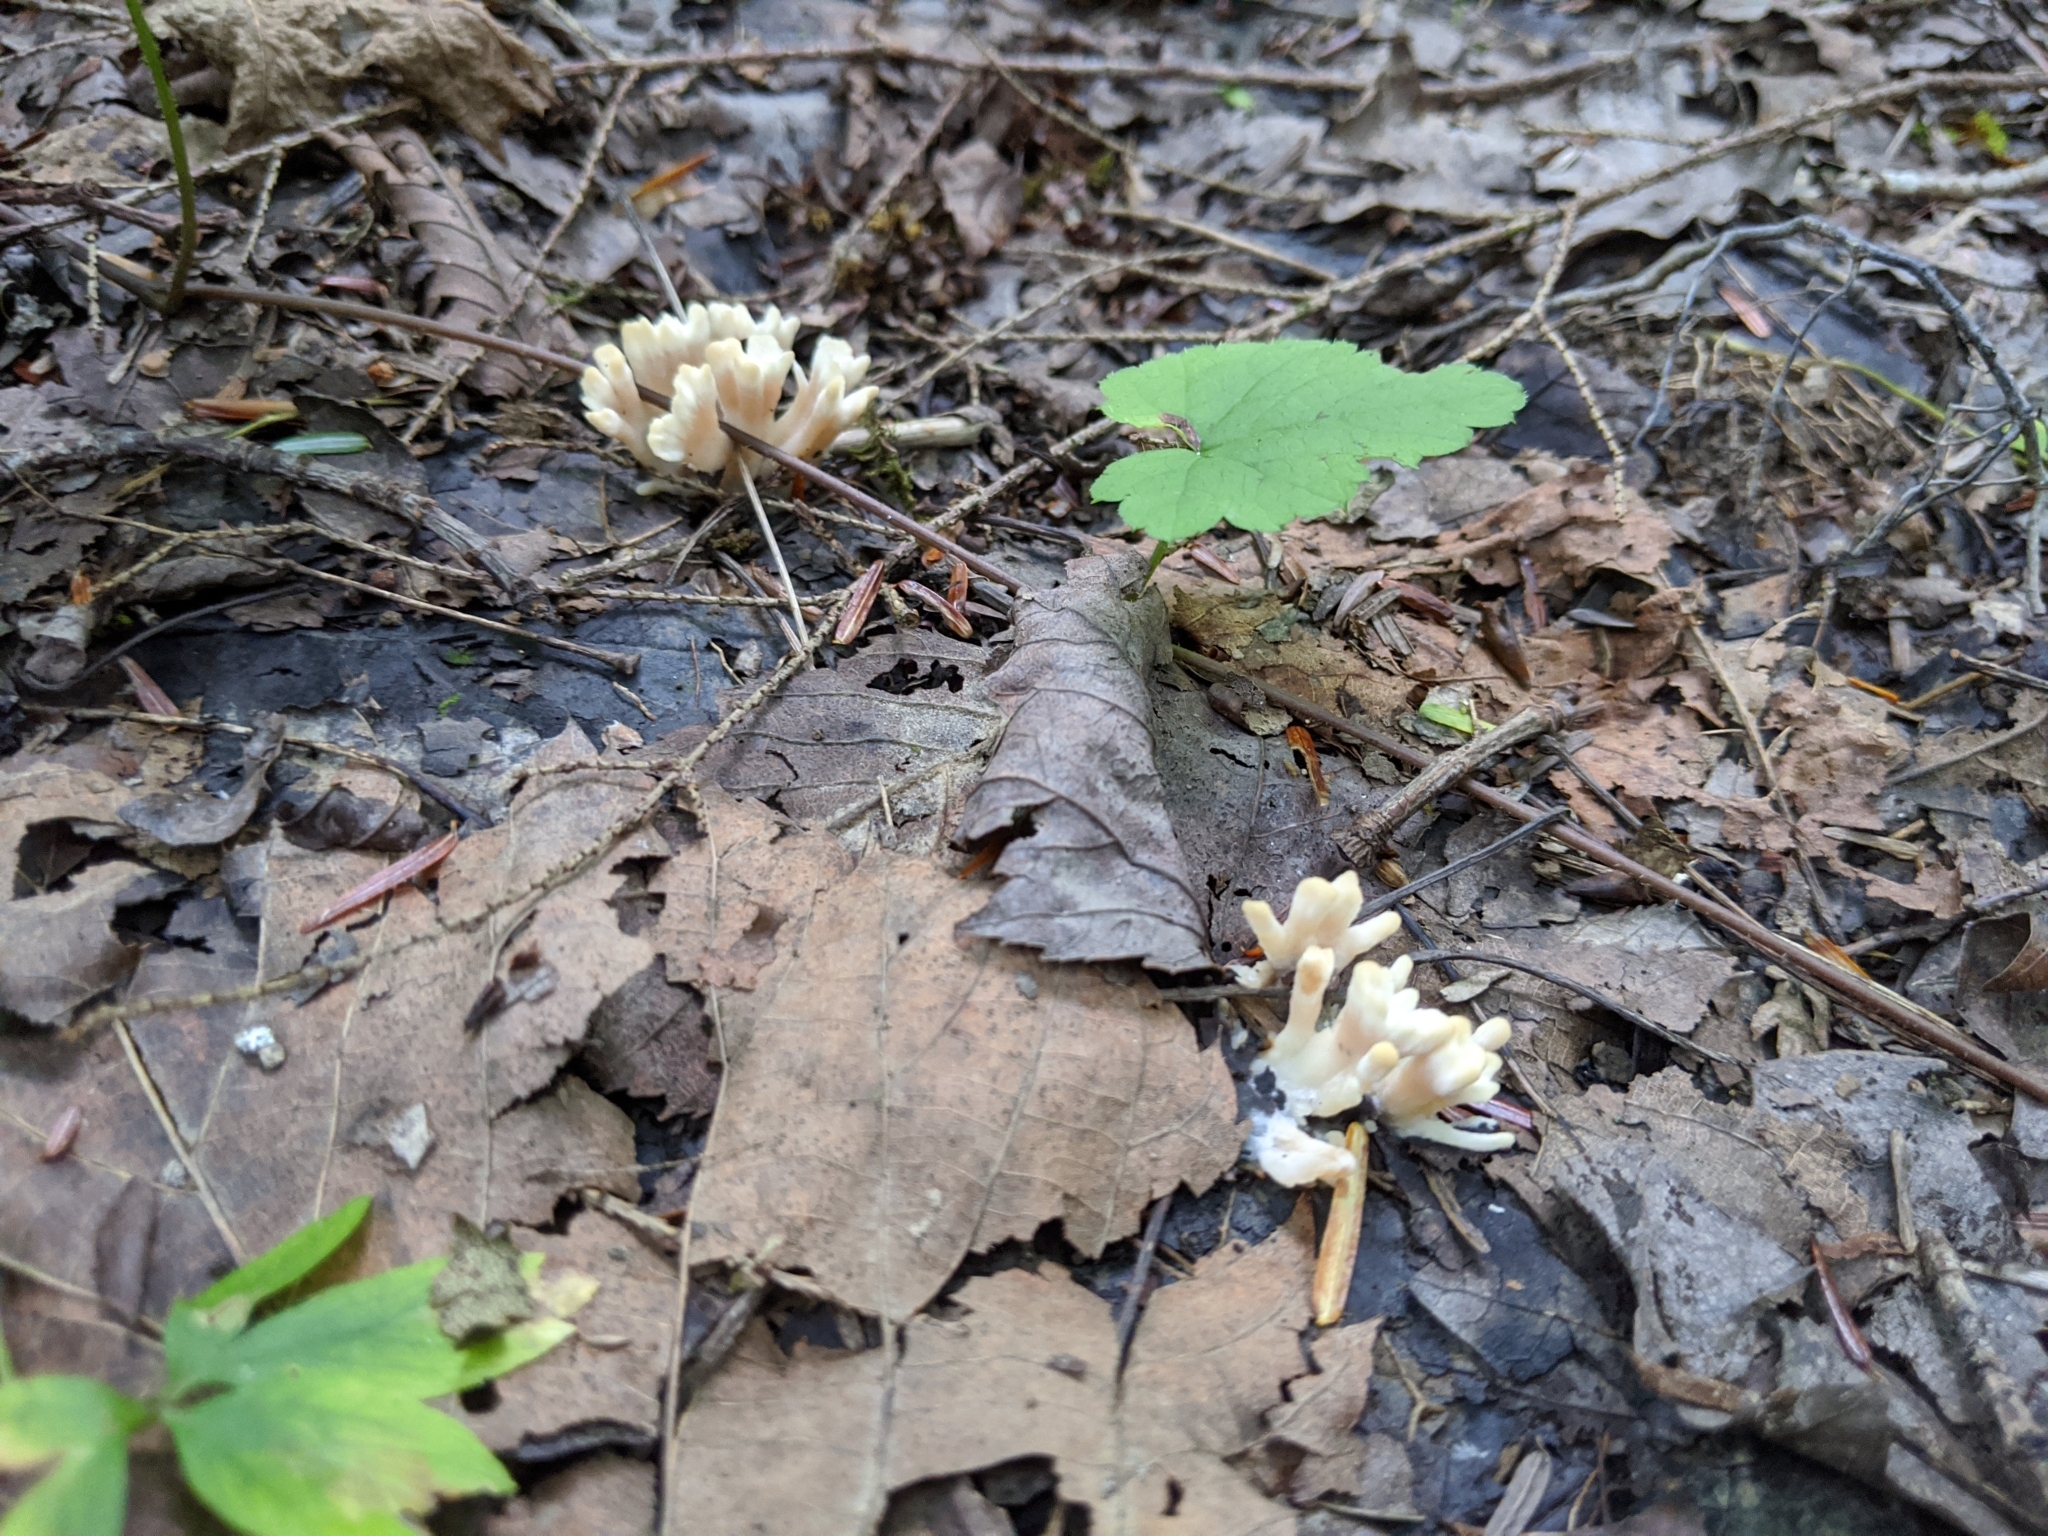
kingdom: Fungi
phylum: Basidiomycota
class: Agaricomycetes
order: Sebacinales
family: Sebacinaceae
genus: Sebacina
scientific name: Sebacina schweinitzii
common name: Jellied false coral fungus
